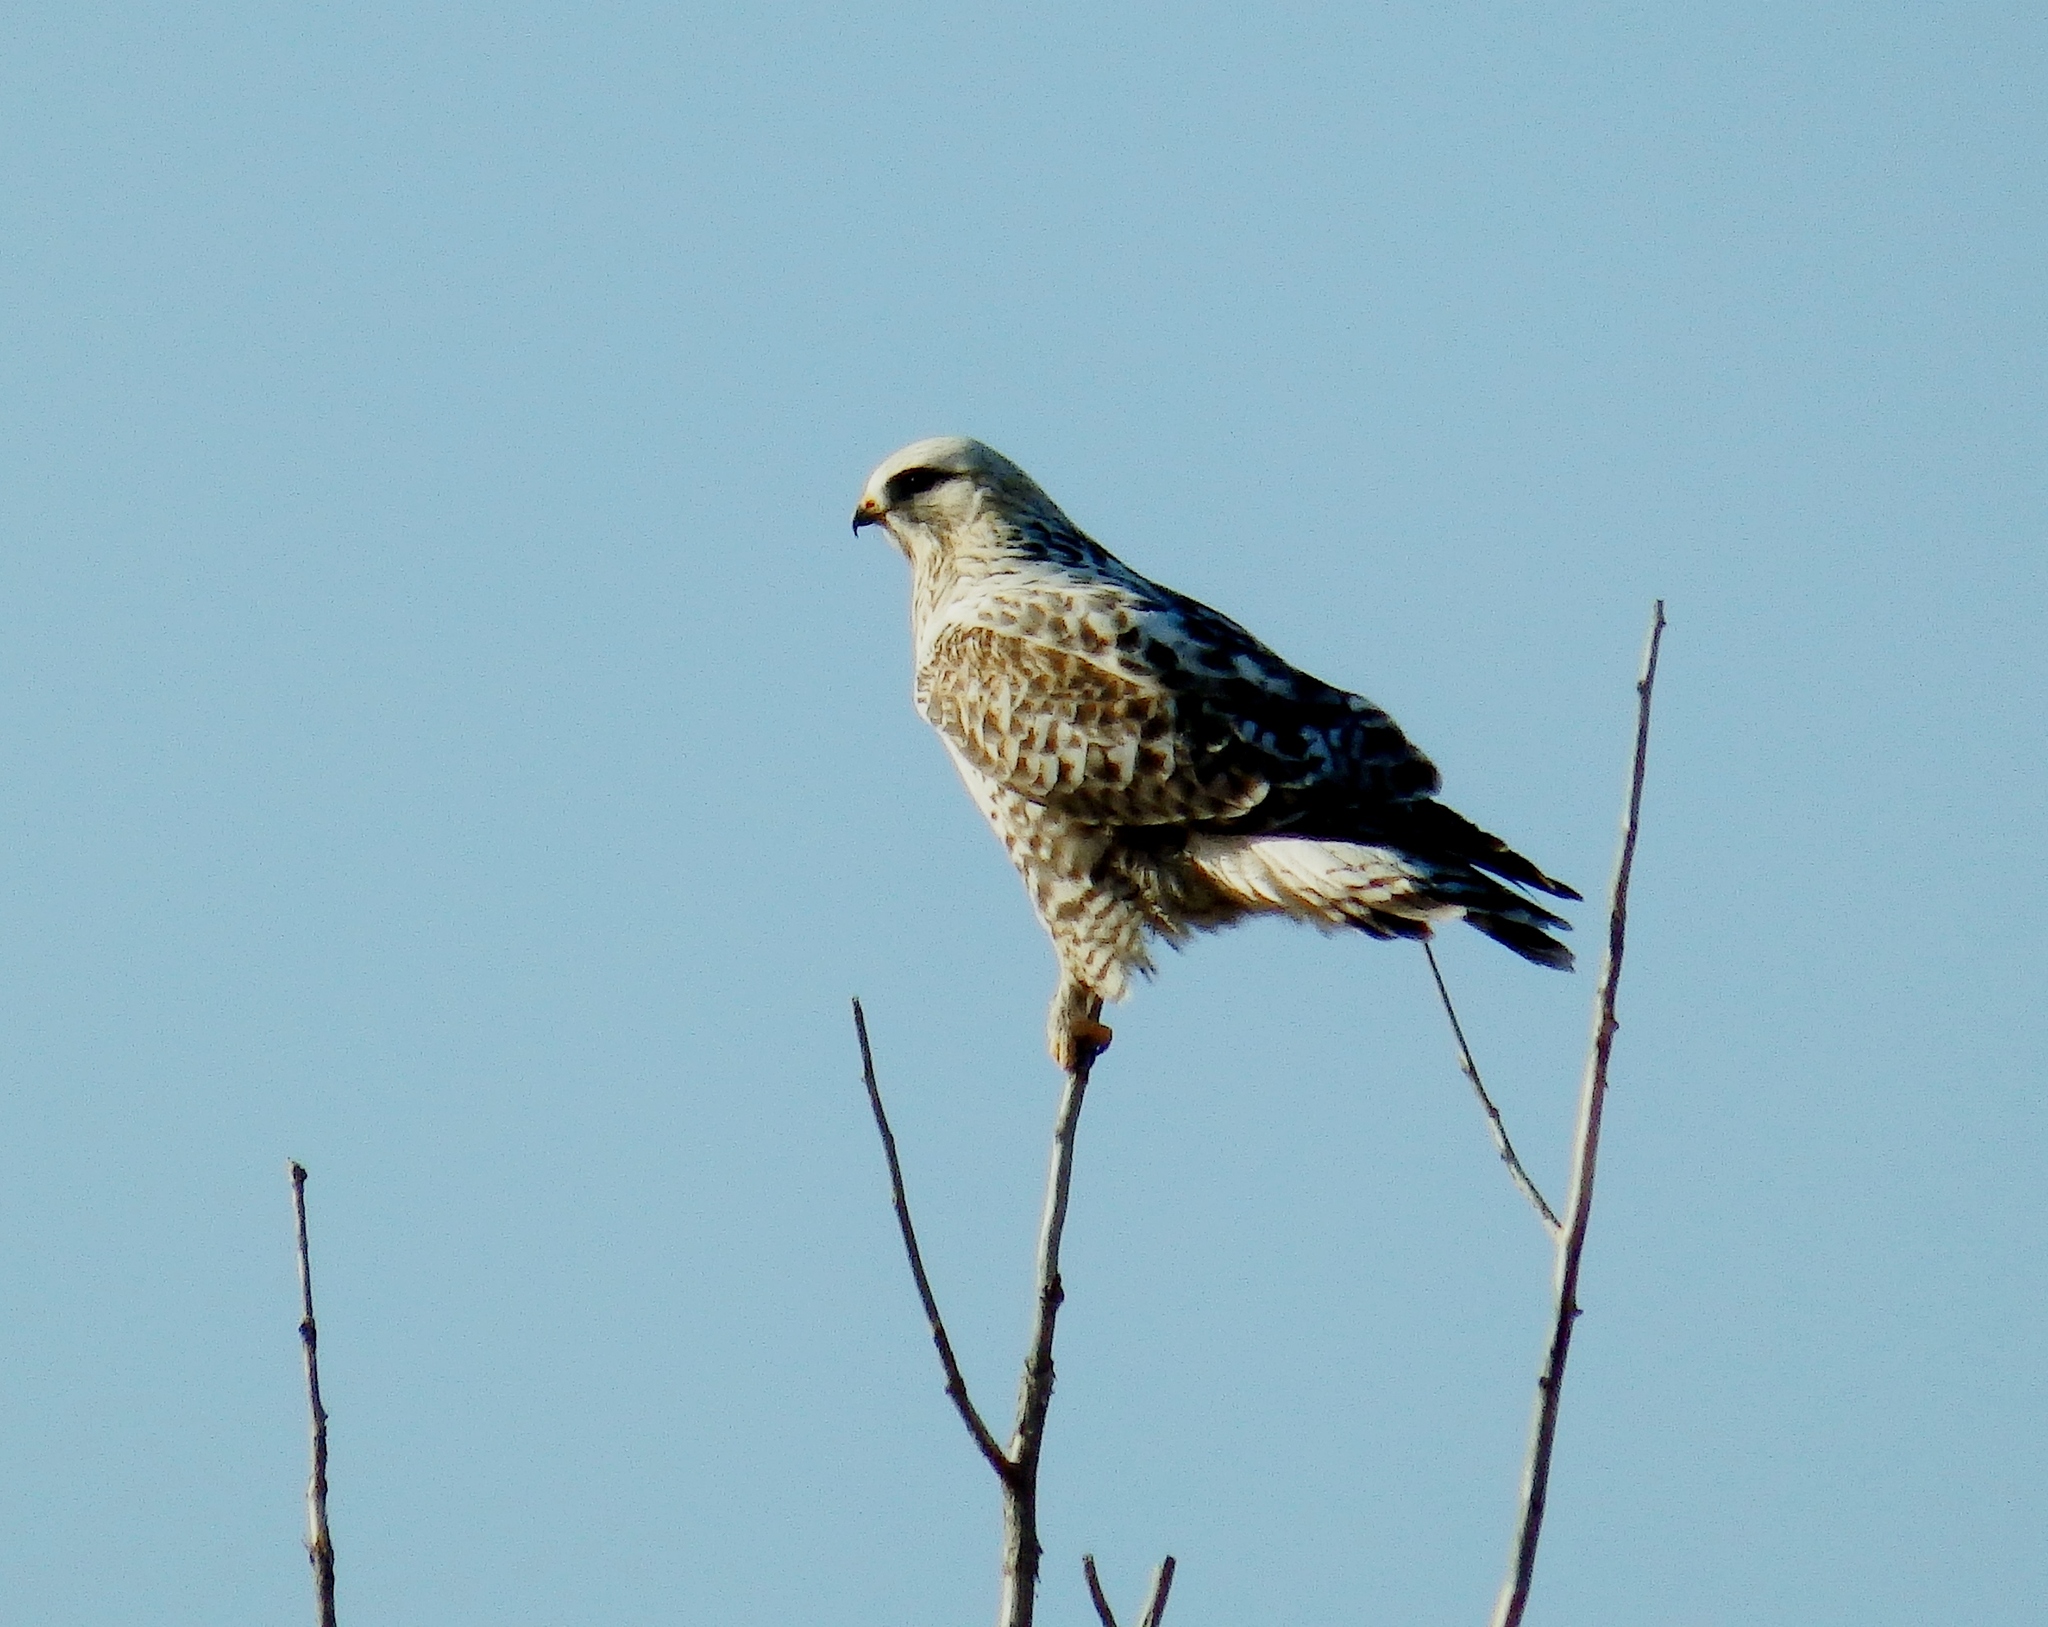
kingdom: Animalia
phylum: Chordata
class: Aves
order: Accipitriformes
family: Accipitridae
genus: Buteo
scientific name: Buteo lagopus
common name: Rough-legged buzzard
